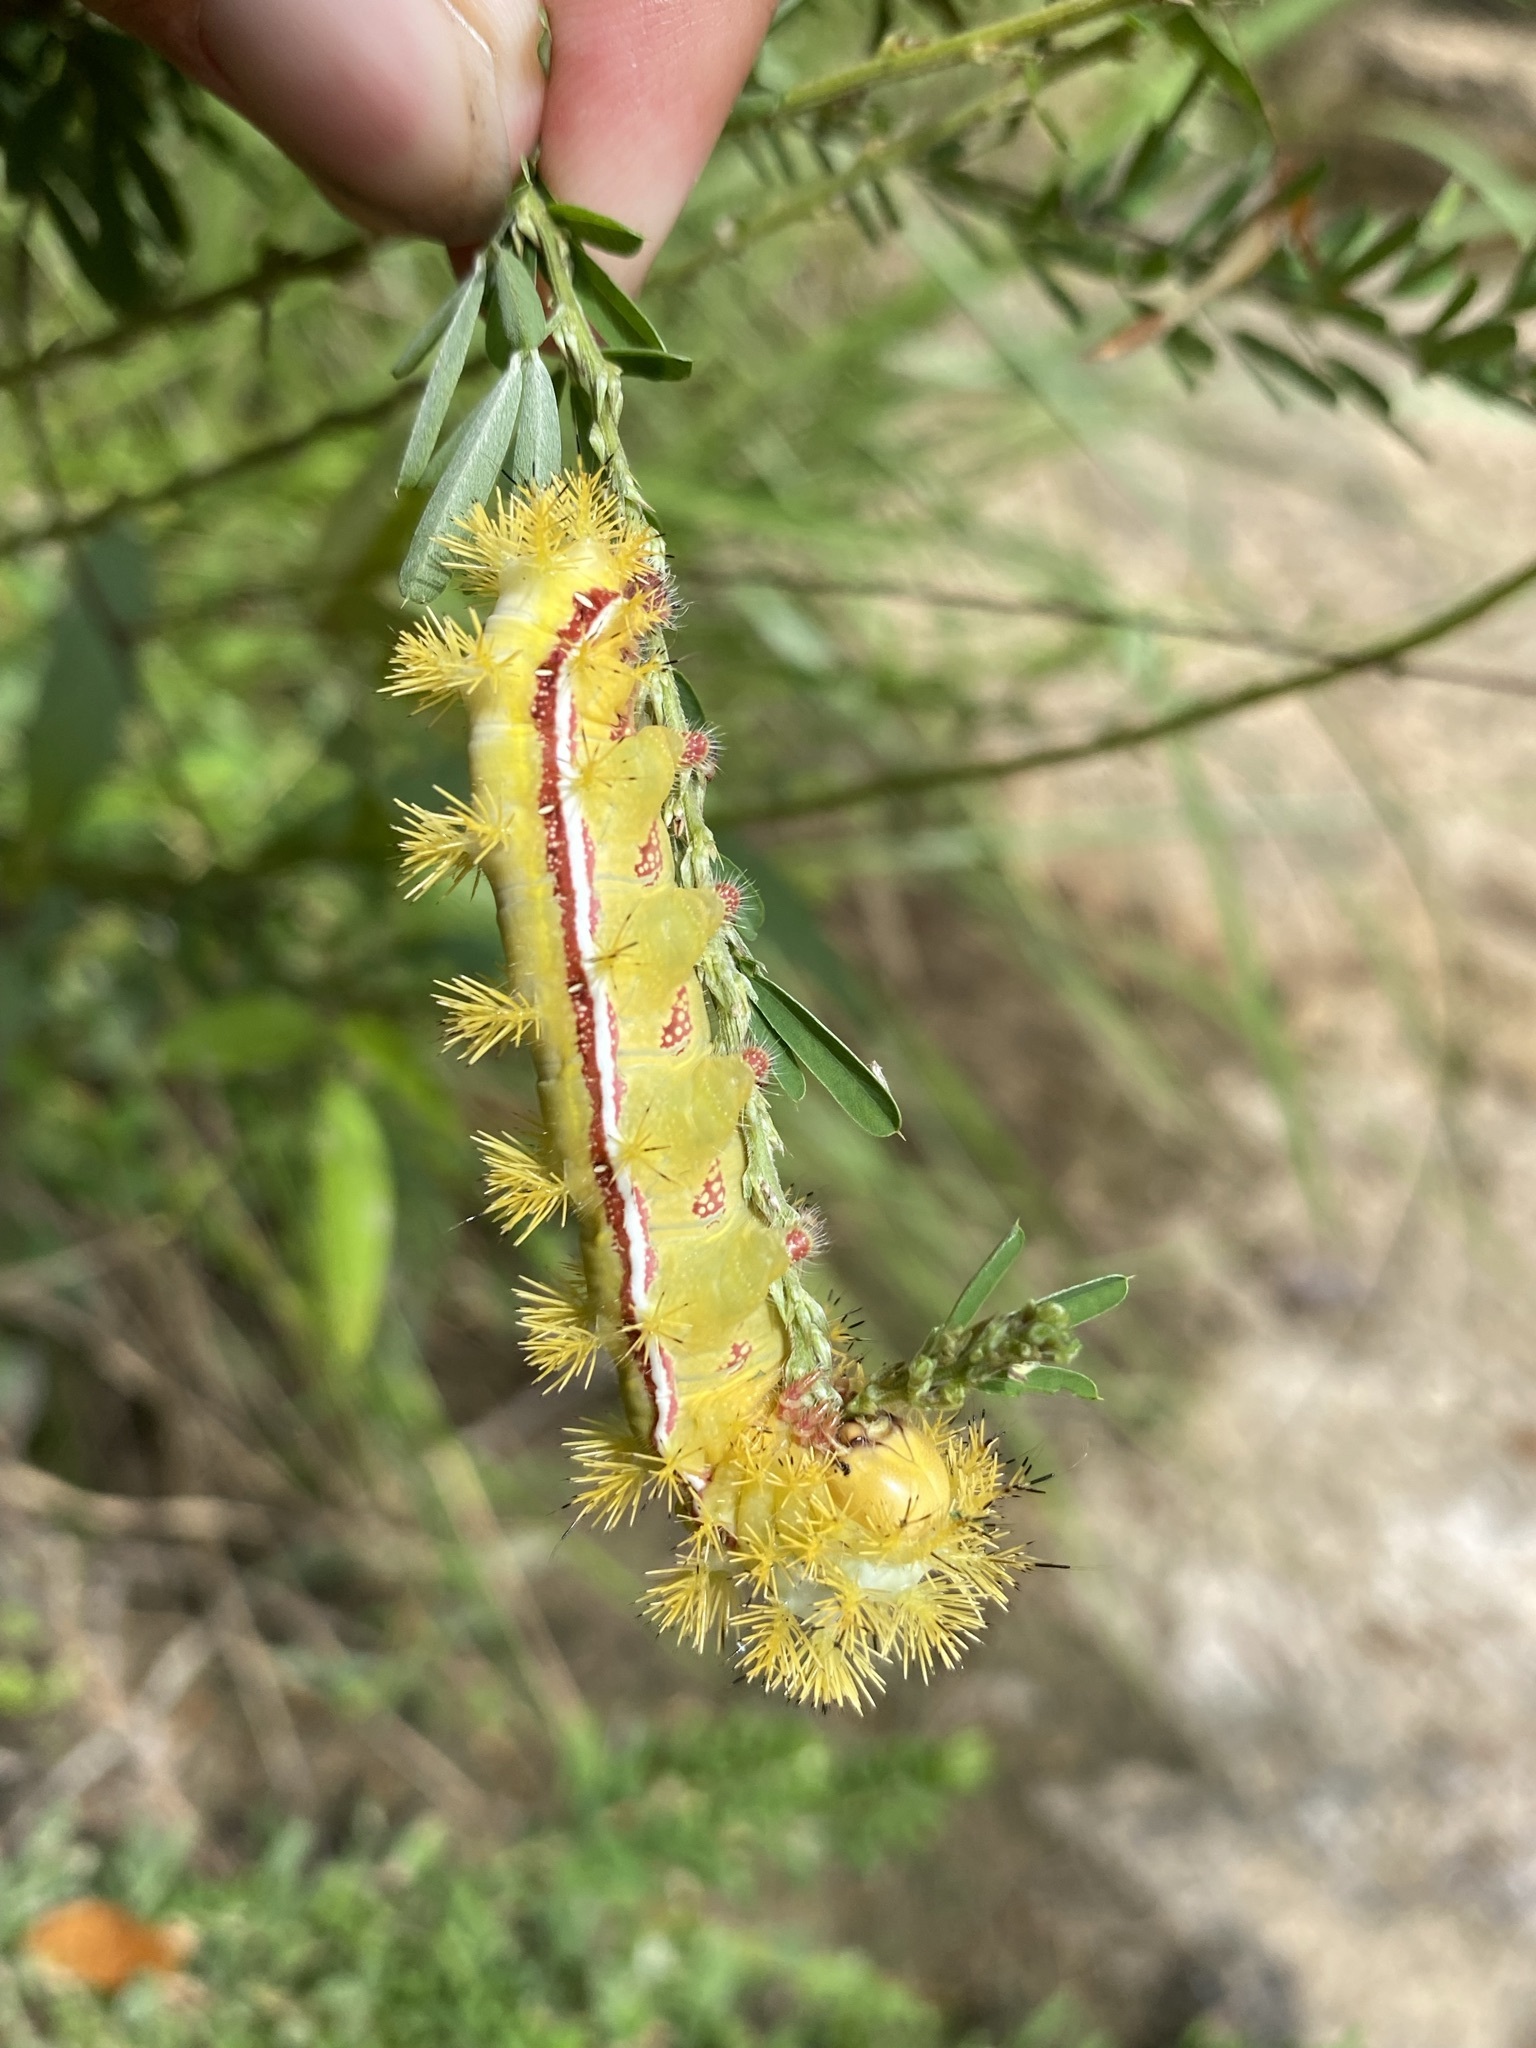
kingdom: Animalia
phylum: Arthropoda
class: Insecta
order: Lepidoptera
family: Saturniidae
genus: Automeris
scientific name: Automeris io
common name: Io moth
